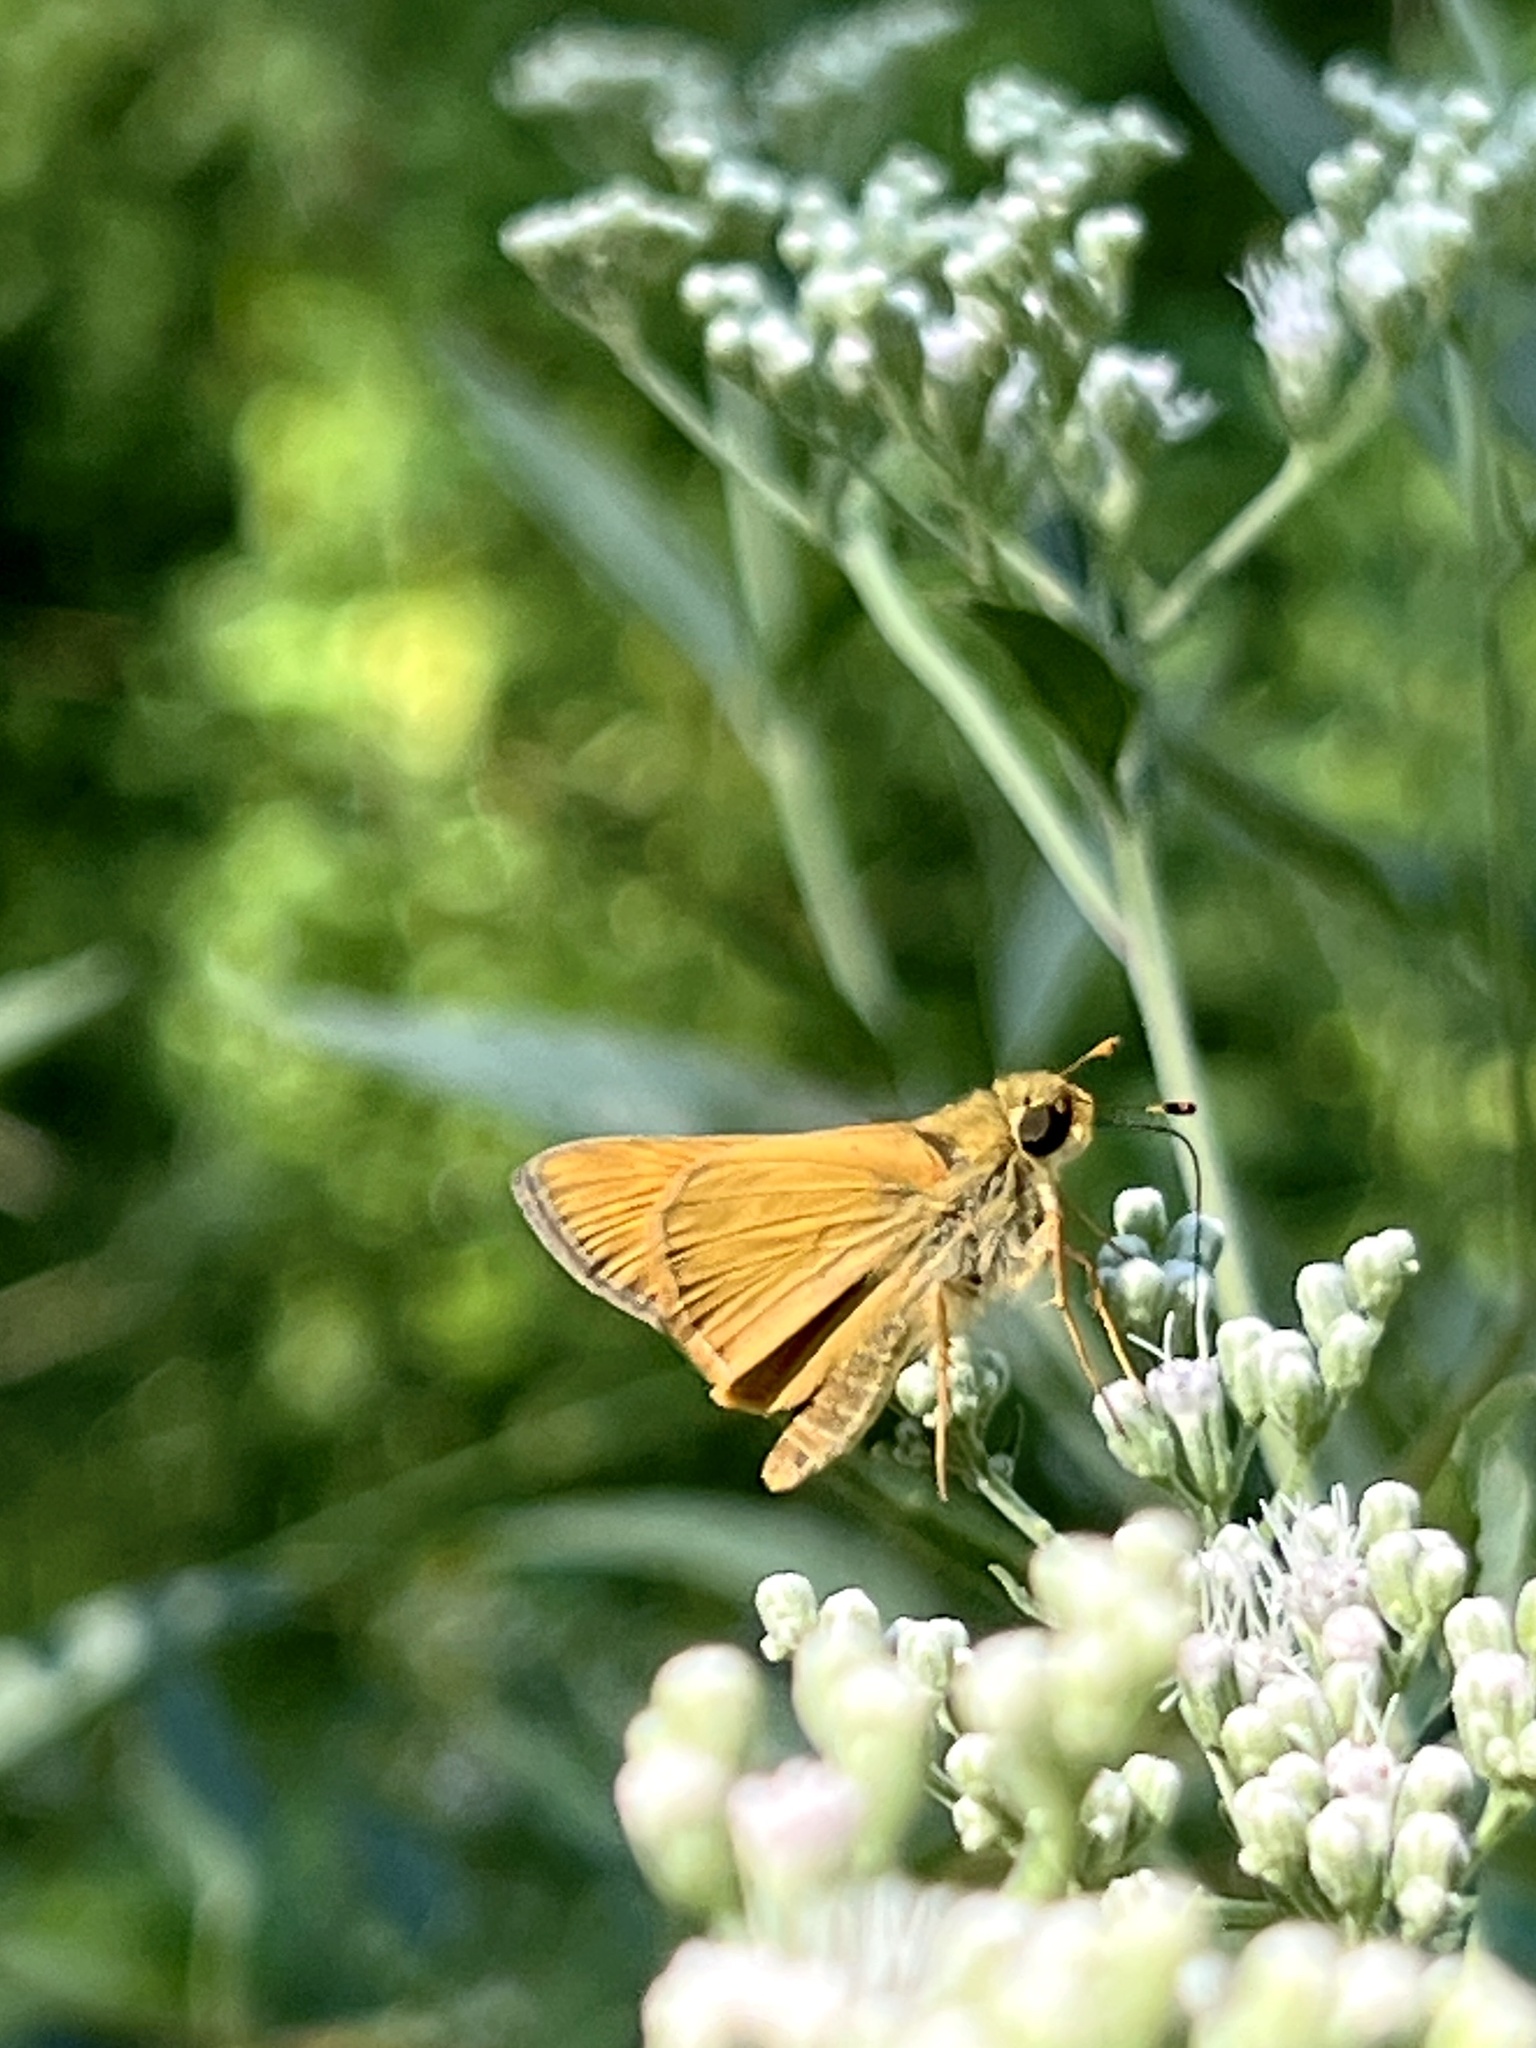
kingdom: Animalia
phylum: Arthropoda
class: Insecta
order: Lepidoptera
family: Hesperiidae
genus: Atalopedes
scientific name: Atalopedes
